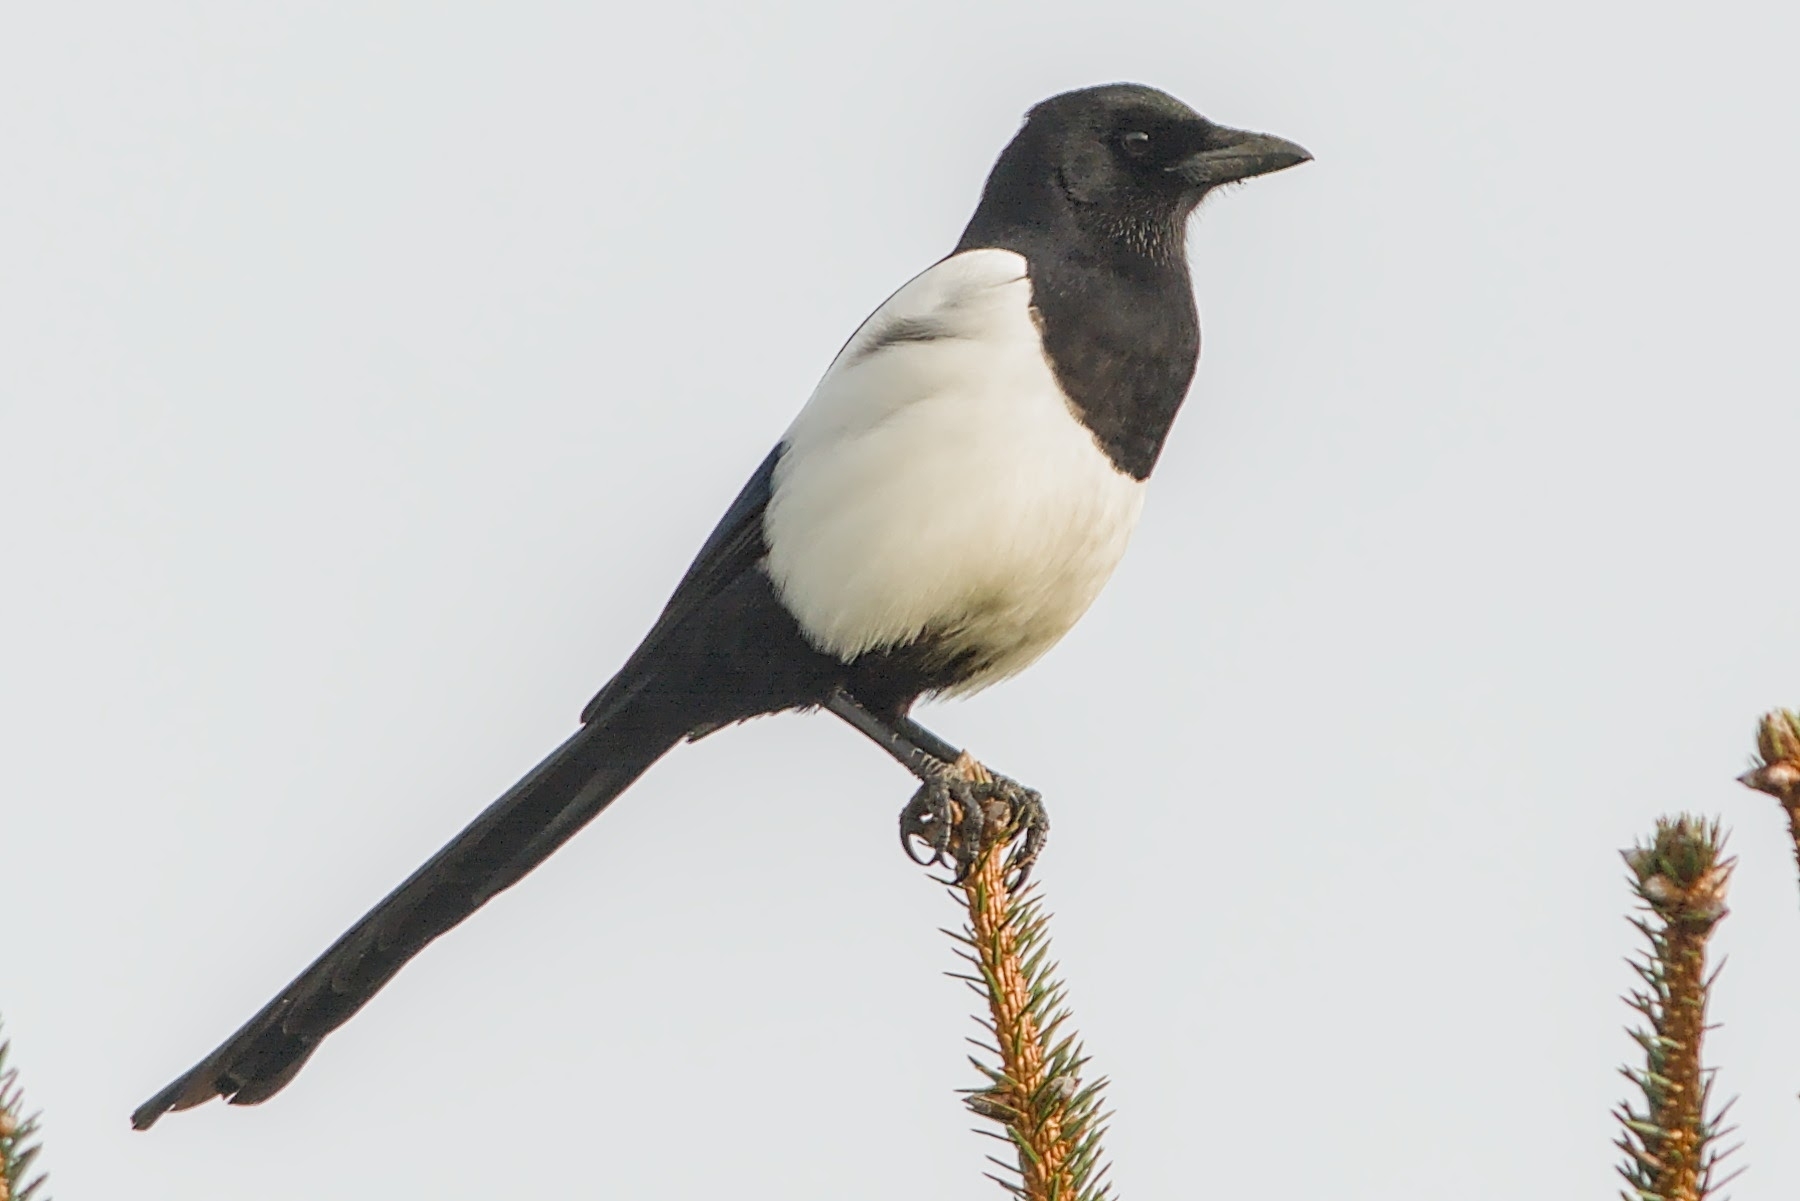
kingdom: Animalia
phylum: Chordata
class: Aves
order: Passeriformes
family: Corvidae
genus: Pica
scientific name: Pica pica
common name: Eurasian magpie
